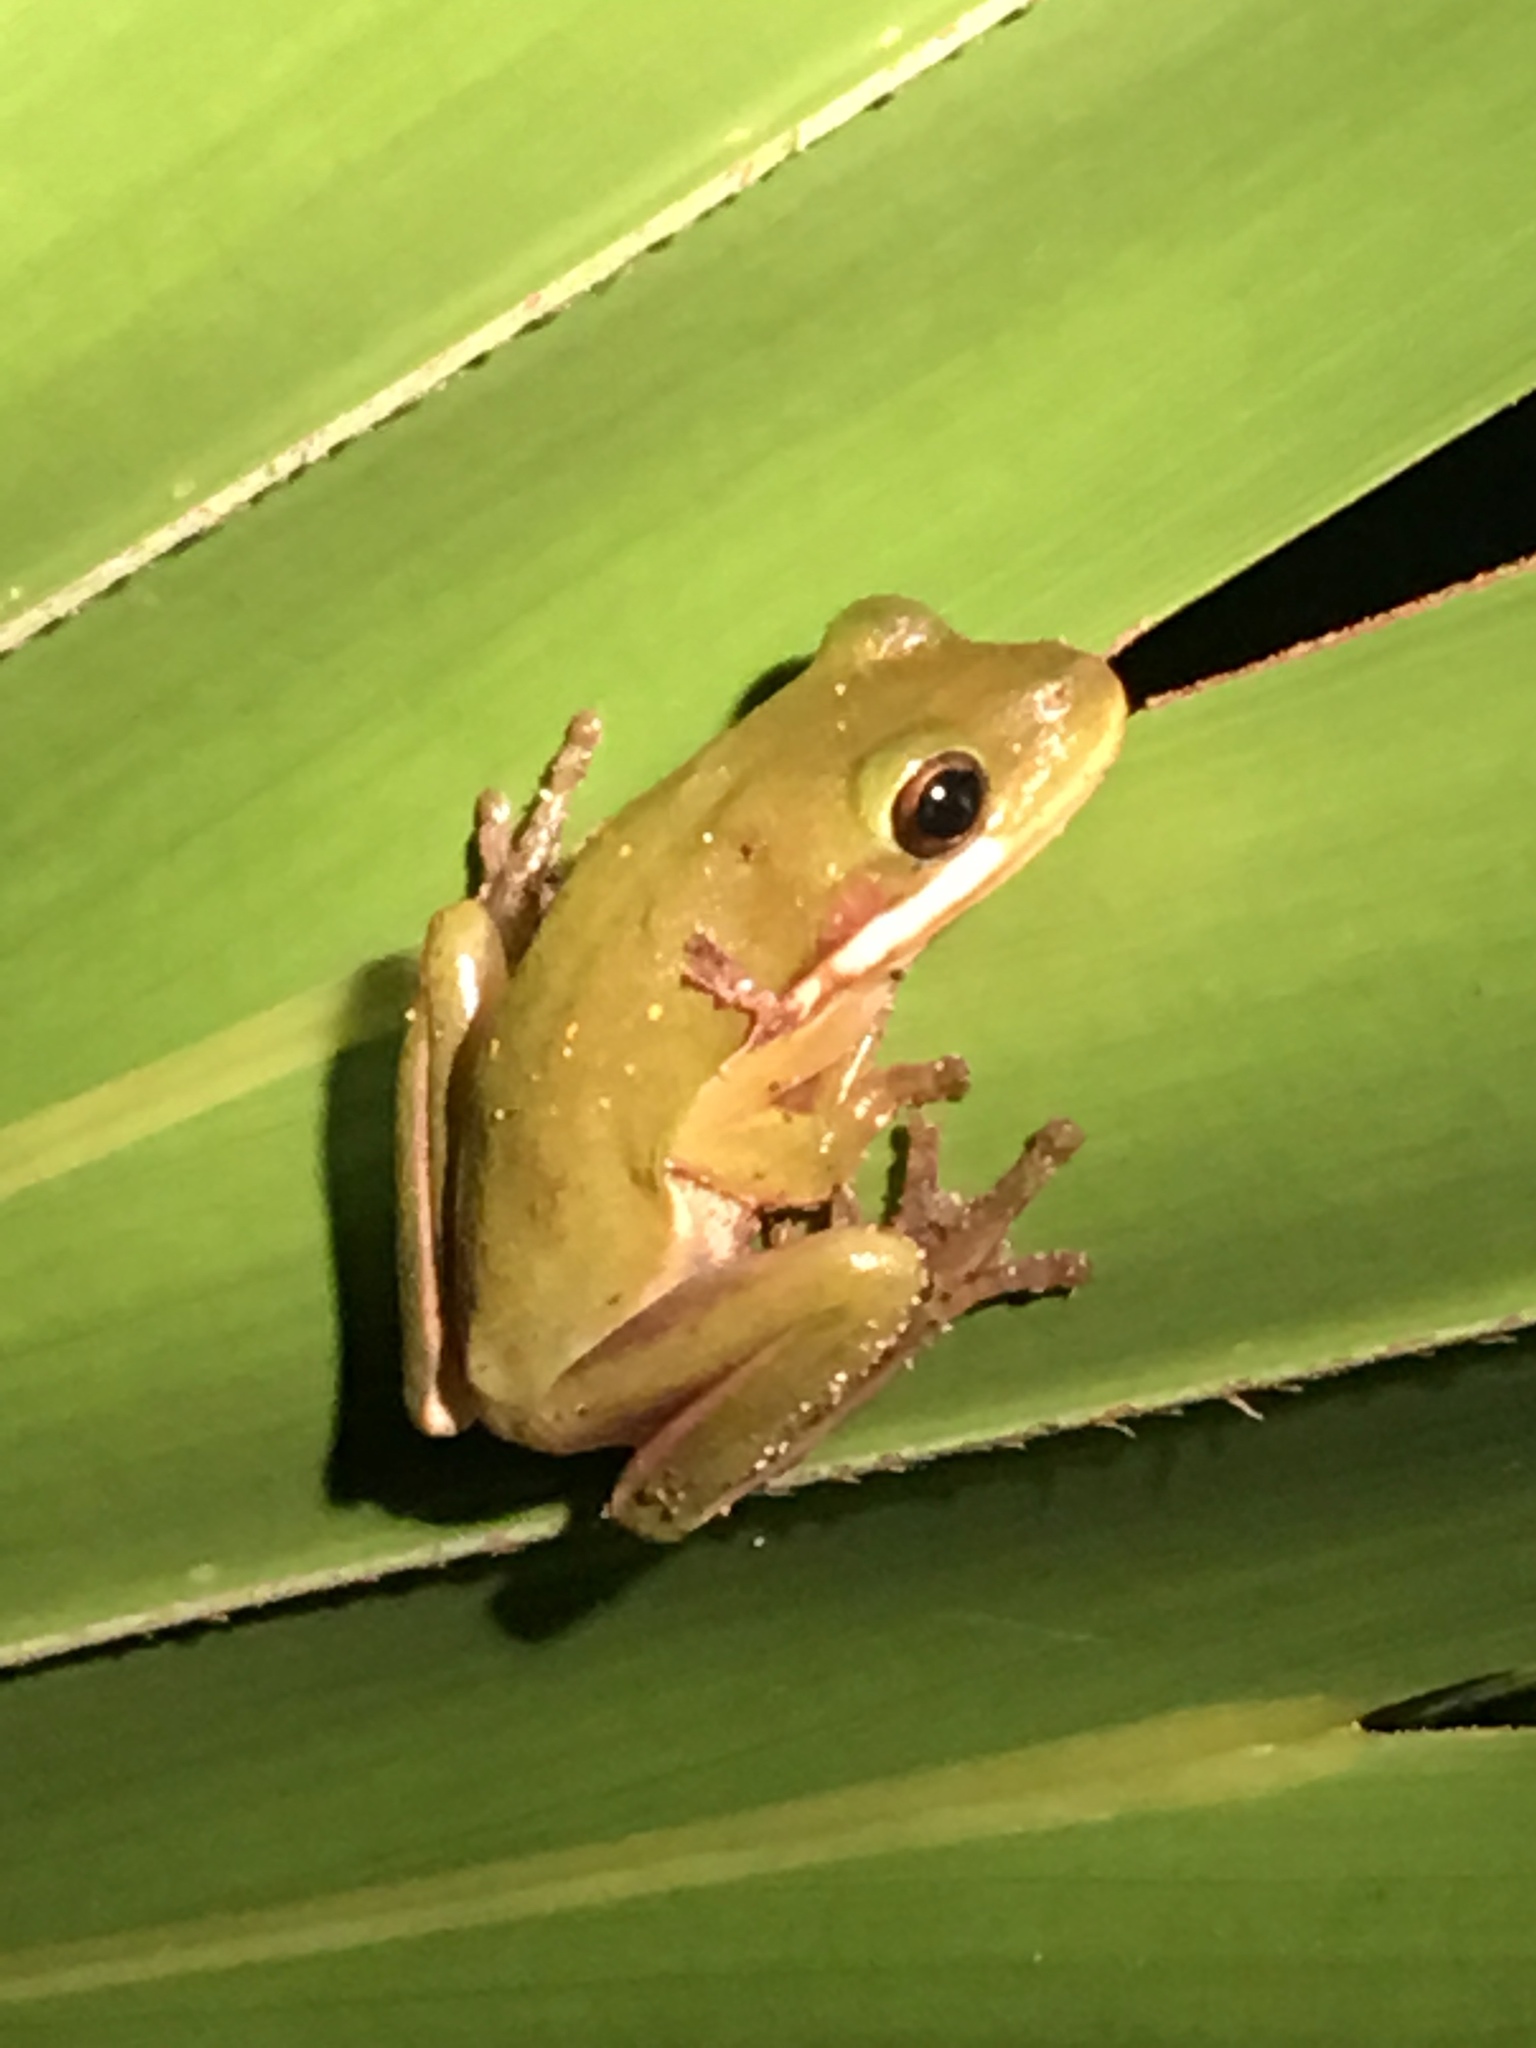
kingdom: Animalia
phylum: Chordata
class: Amphibia
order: Anura
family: Hylidae
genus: Dryophytes
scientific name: Dryophytes cinereus
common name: Green treefrog
